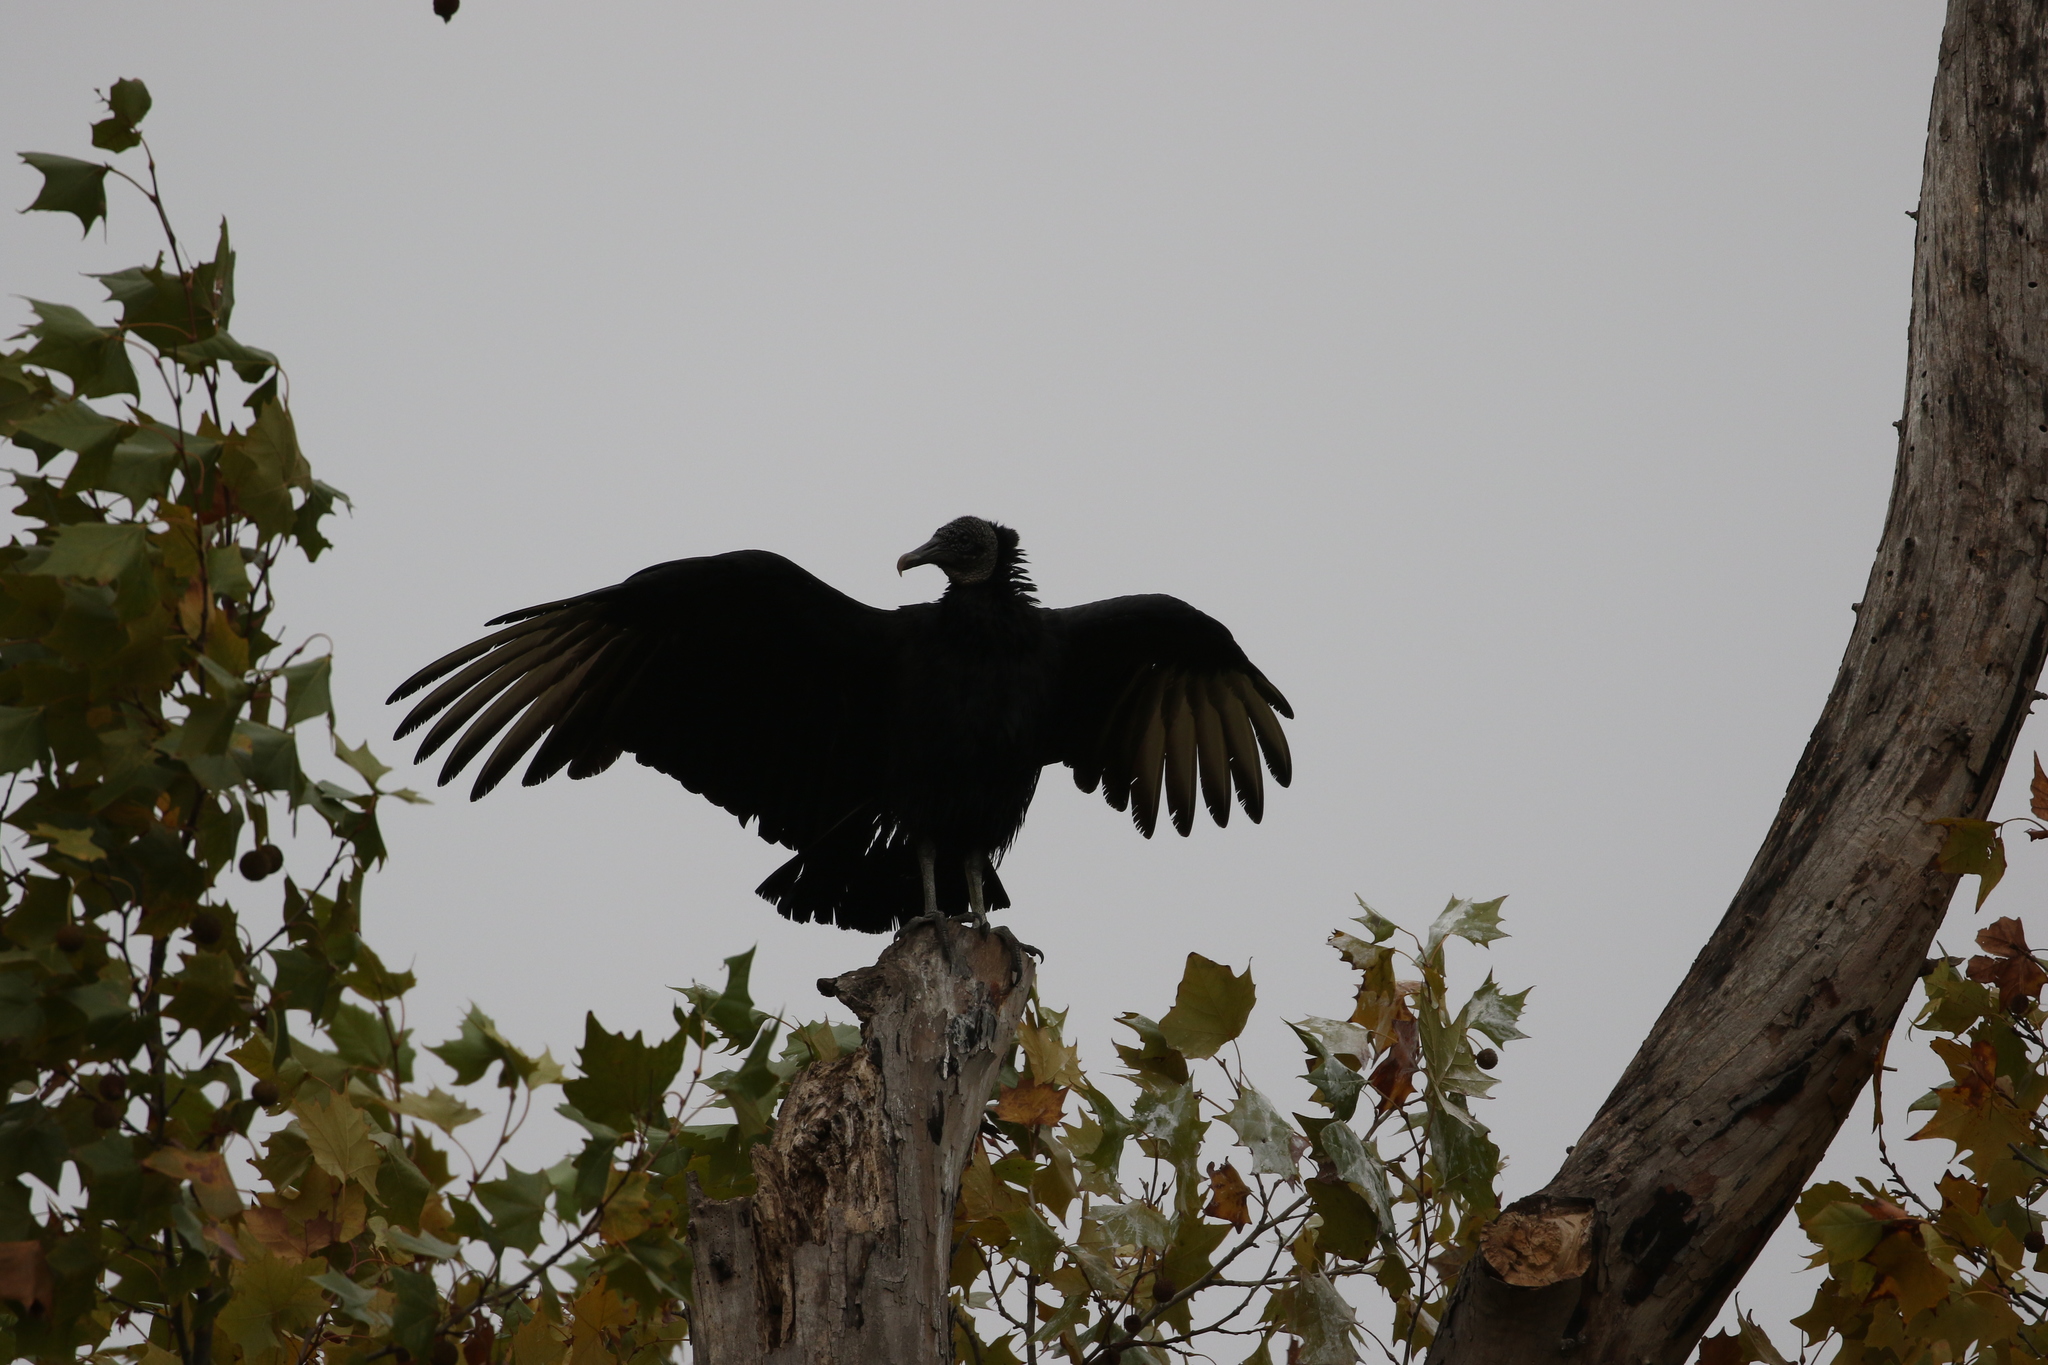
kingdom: Animalia
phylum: Chordata
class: Aves
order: Accipitriformes
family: Cathartidae
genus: Coragyps
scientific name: Coragyps atratus
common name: Black vulture
